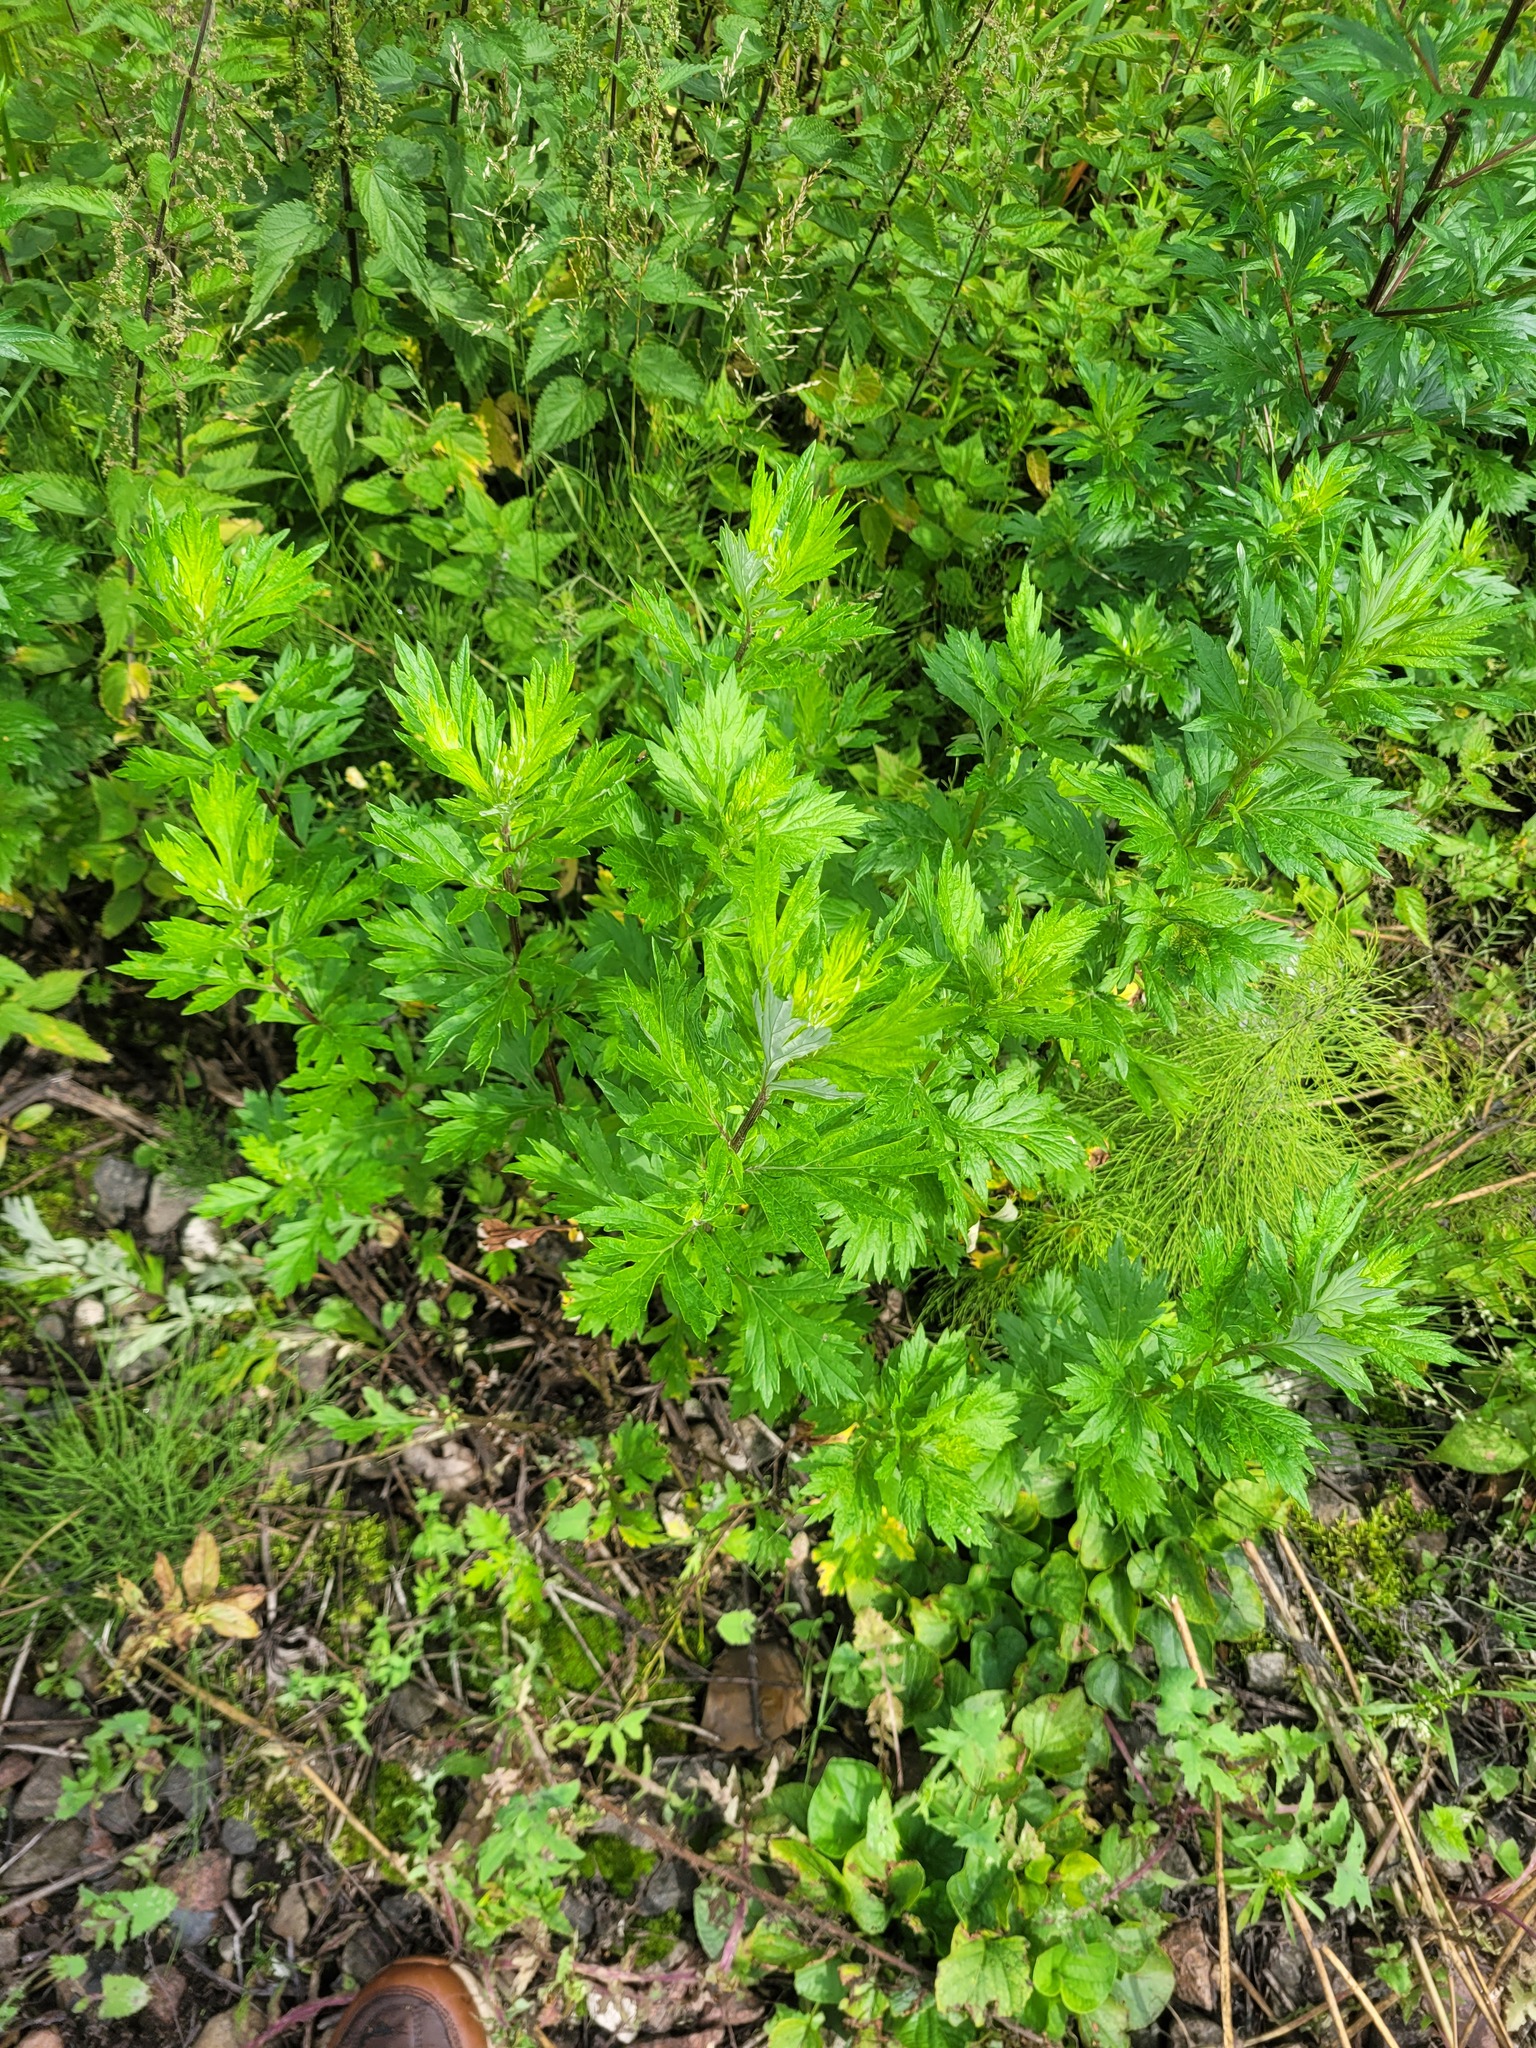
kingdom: Plantae
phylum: Tracheophyta
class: Magnoliopsida
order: Asterales
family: Asteraceae
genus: Artemisia
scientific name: Artemisia vulgaris
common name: Mugwort
